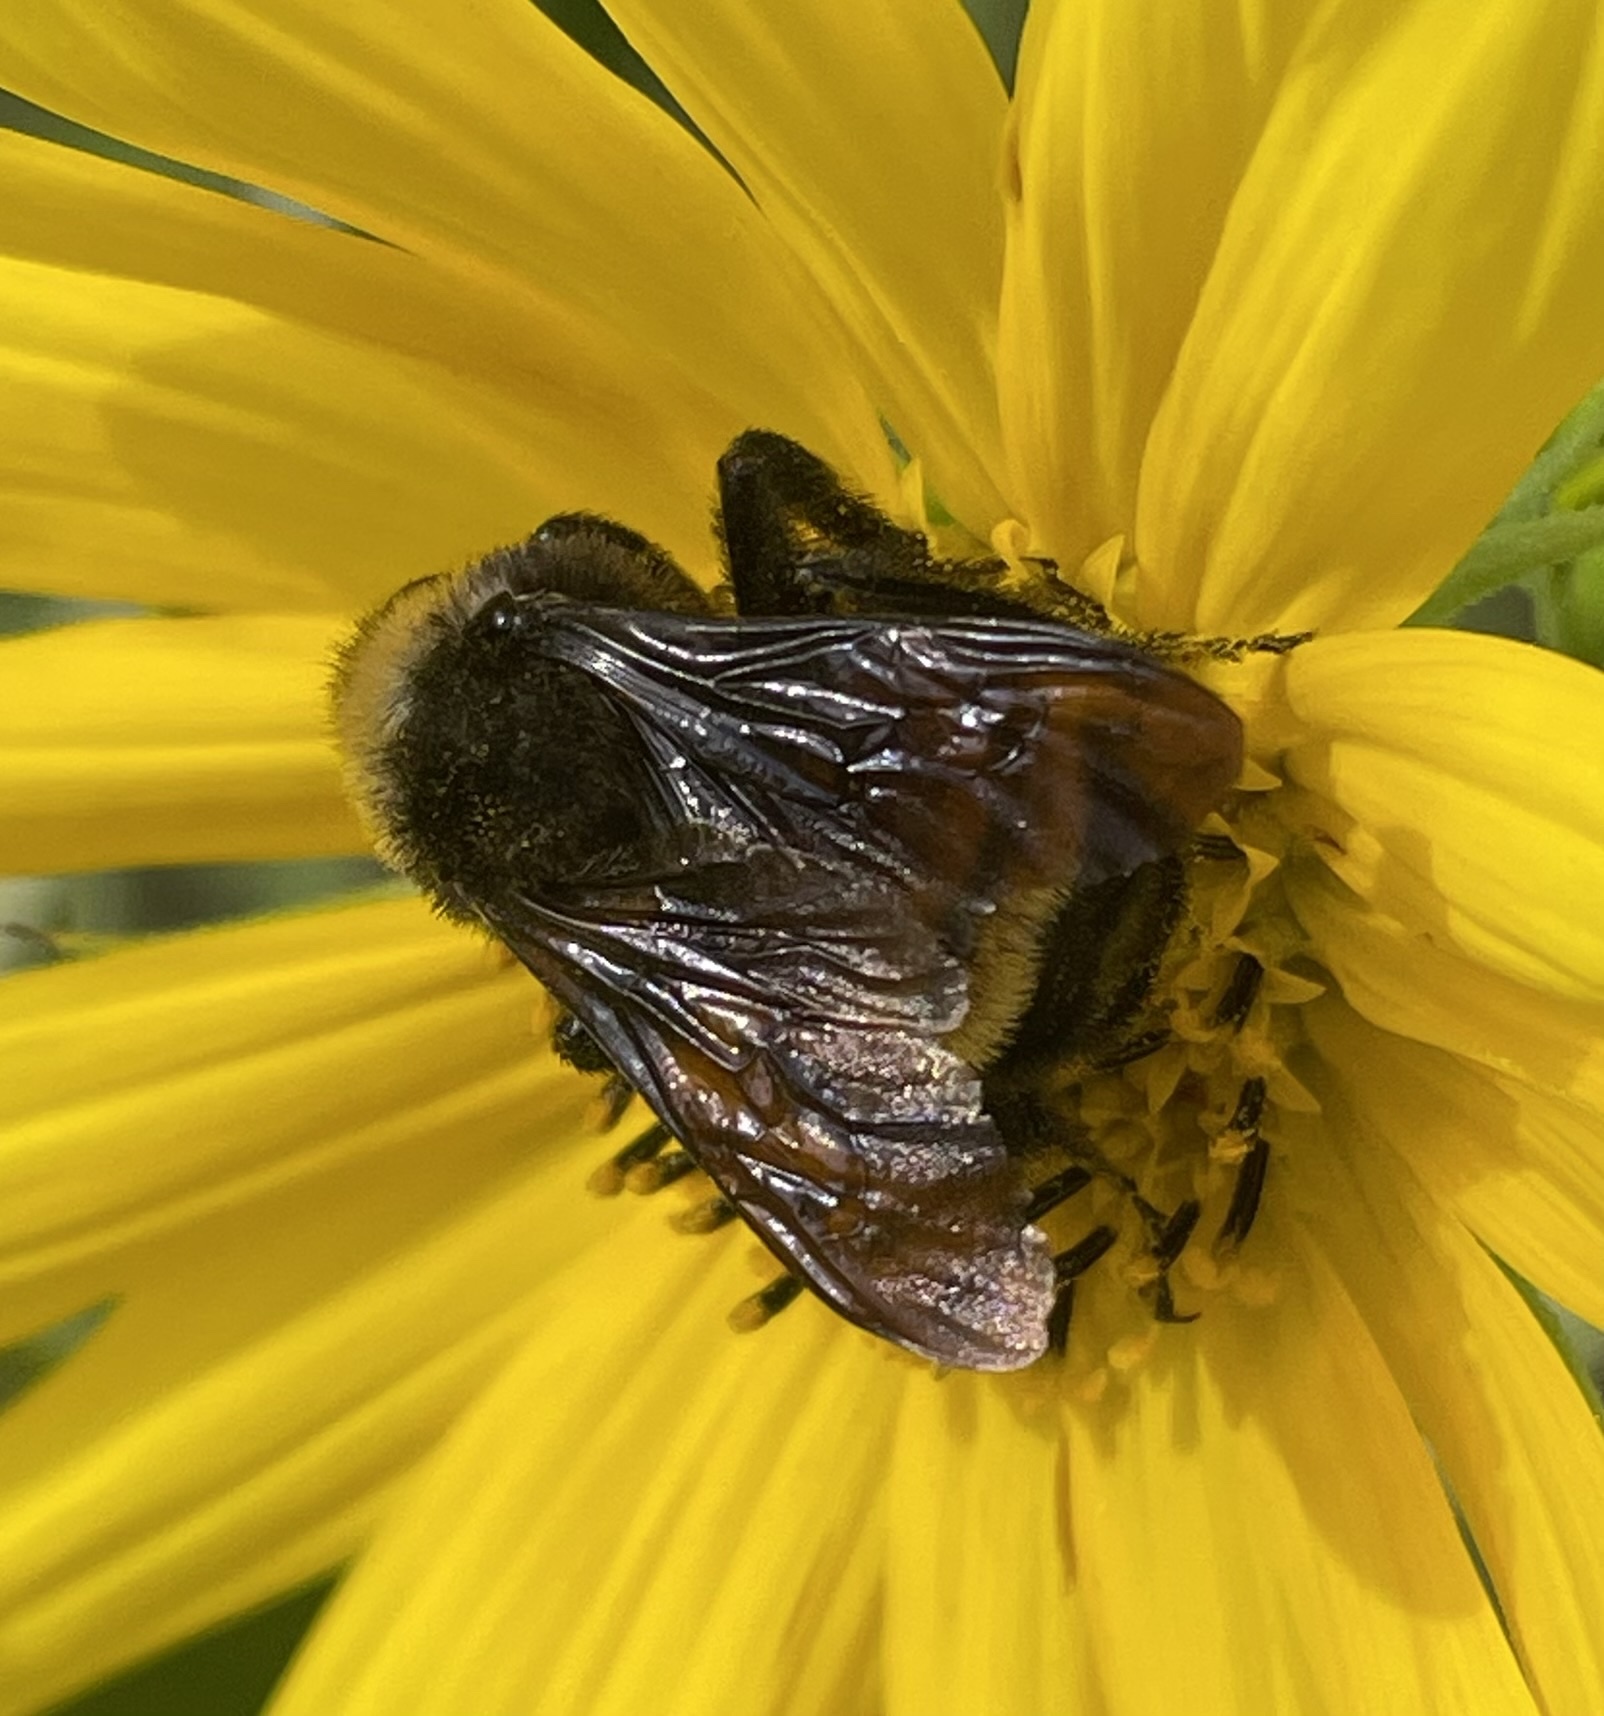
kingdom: Animalia
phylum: Arthropoda
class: Insecta
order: Hymenoptera
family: Apidae
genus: Bombus
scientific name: Bombus pensylvanicus
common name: Bumble bee
